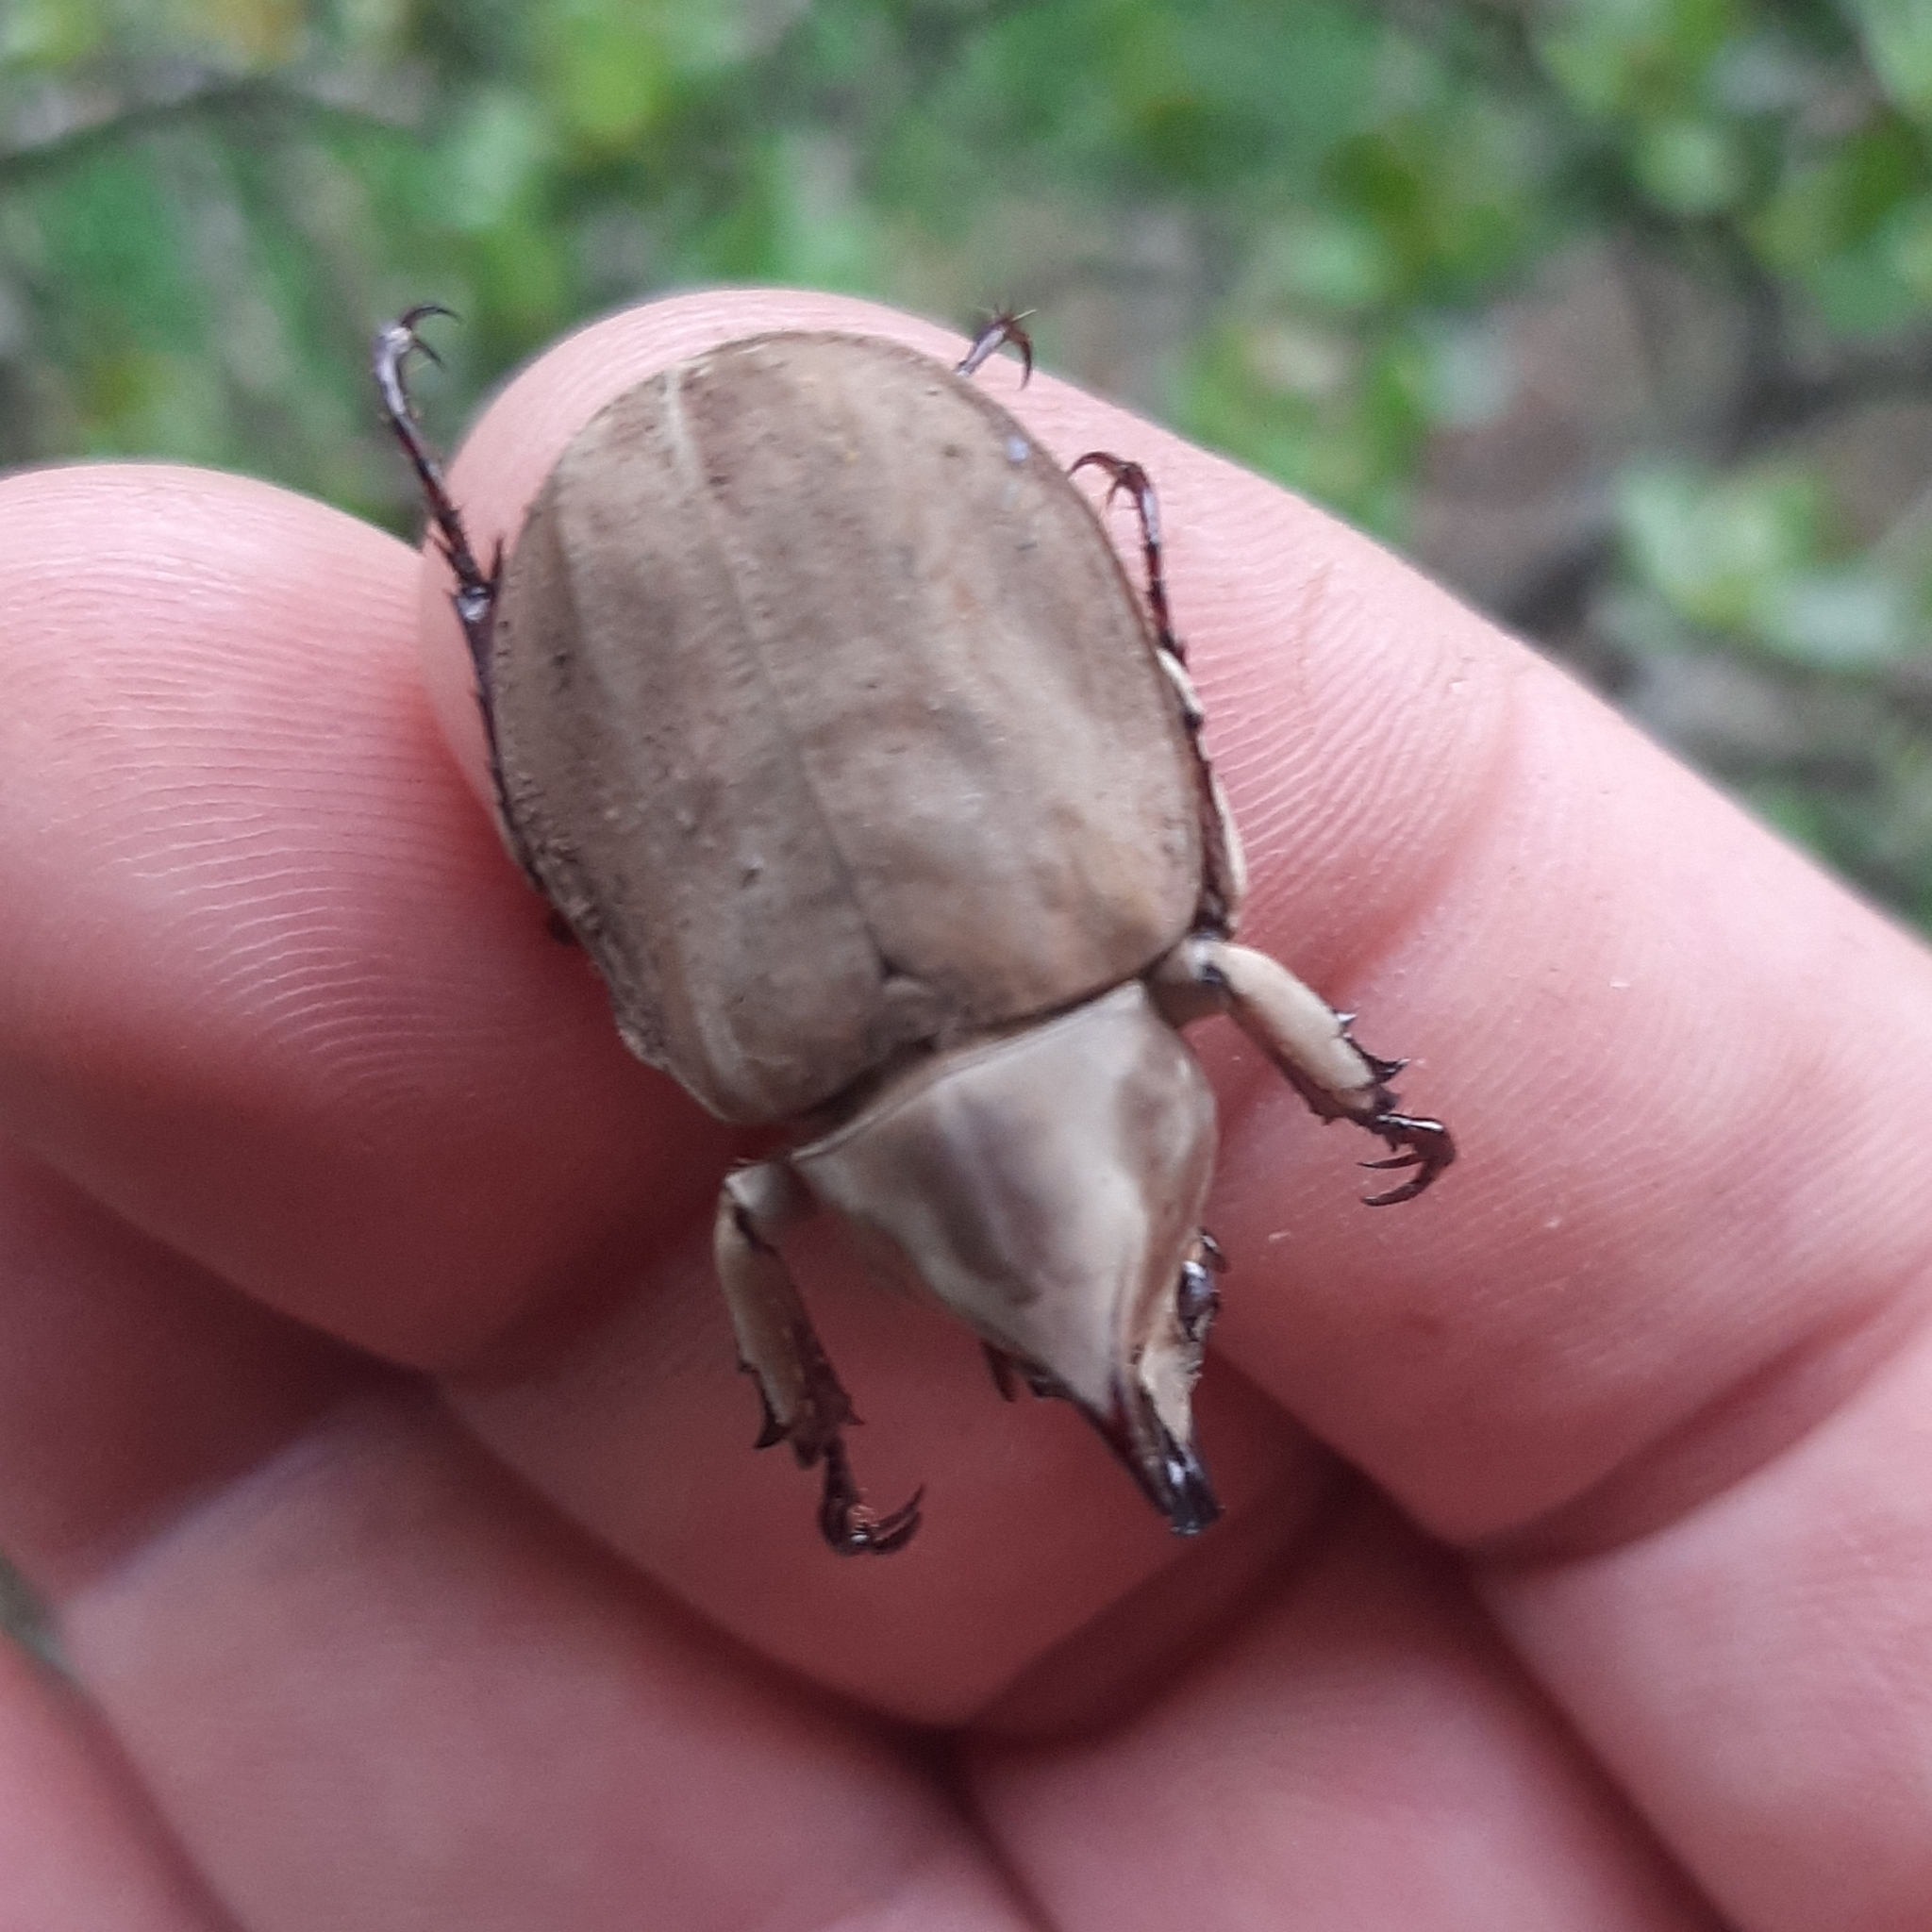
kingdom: Animalia
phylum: Arthropoda
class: Insecta
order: Coleoptera
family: Scarabaeidae
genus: Spodistes
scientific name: Spodistes
